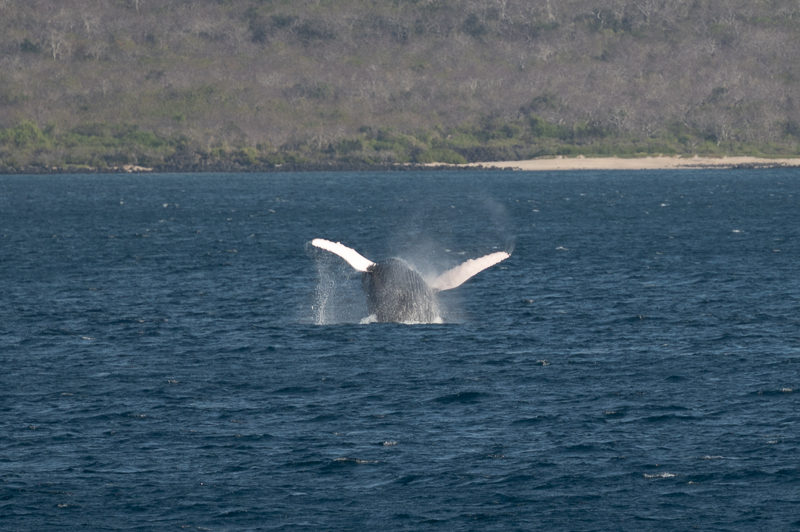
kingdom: Animalia
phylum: Chordata
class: Mammalia
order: Cetacea
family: Balaenopteridae
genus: Megaptera
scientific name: Megaptera novaeangliae
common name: Humpback whale
